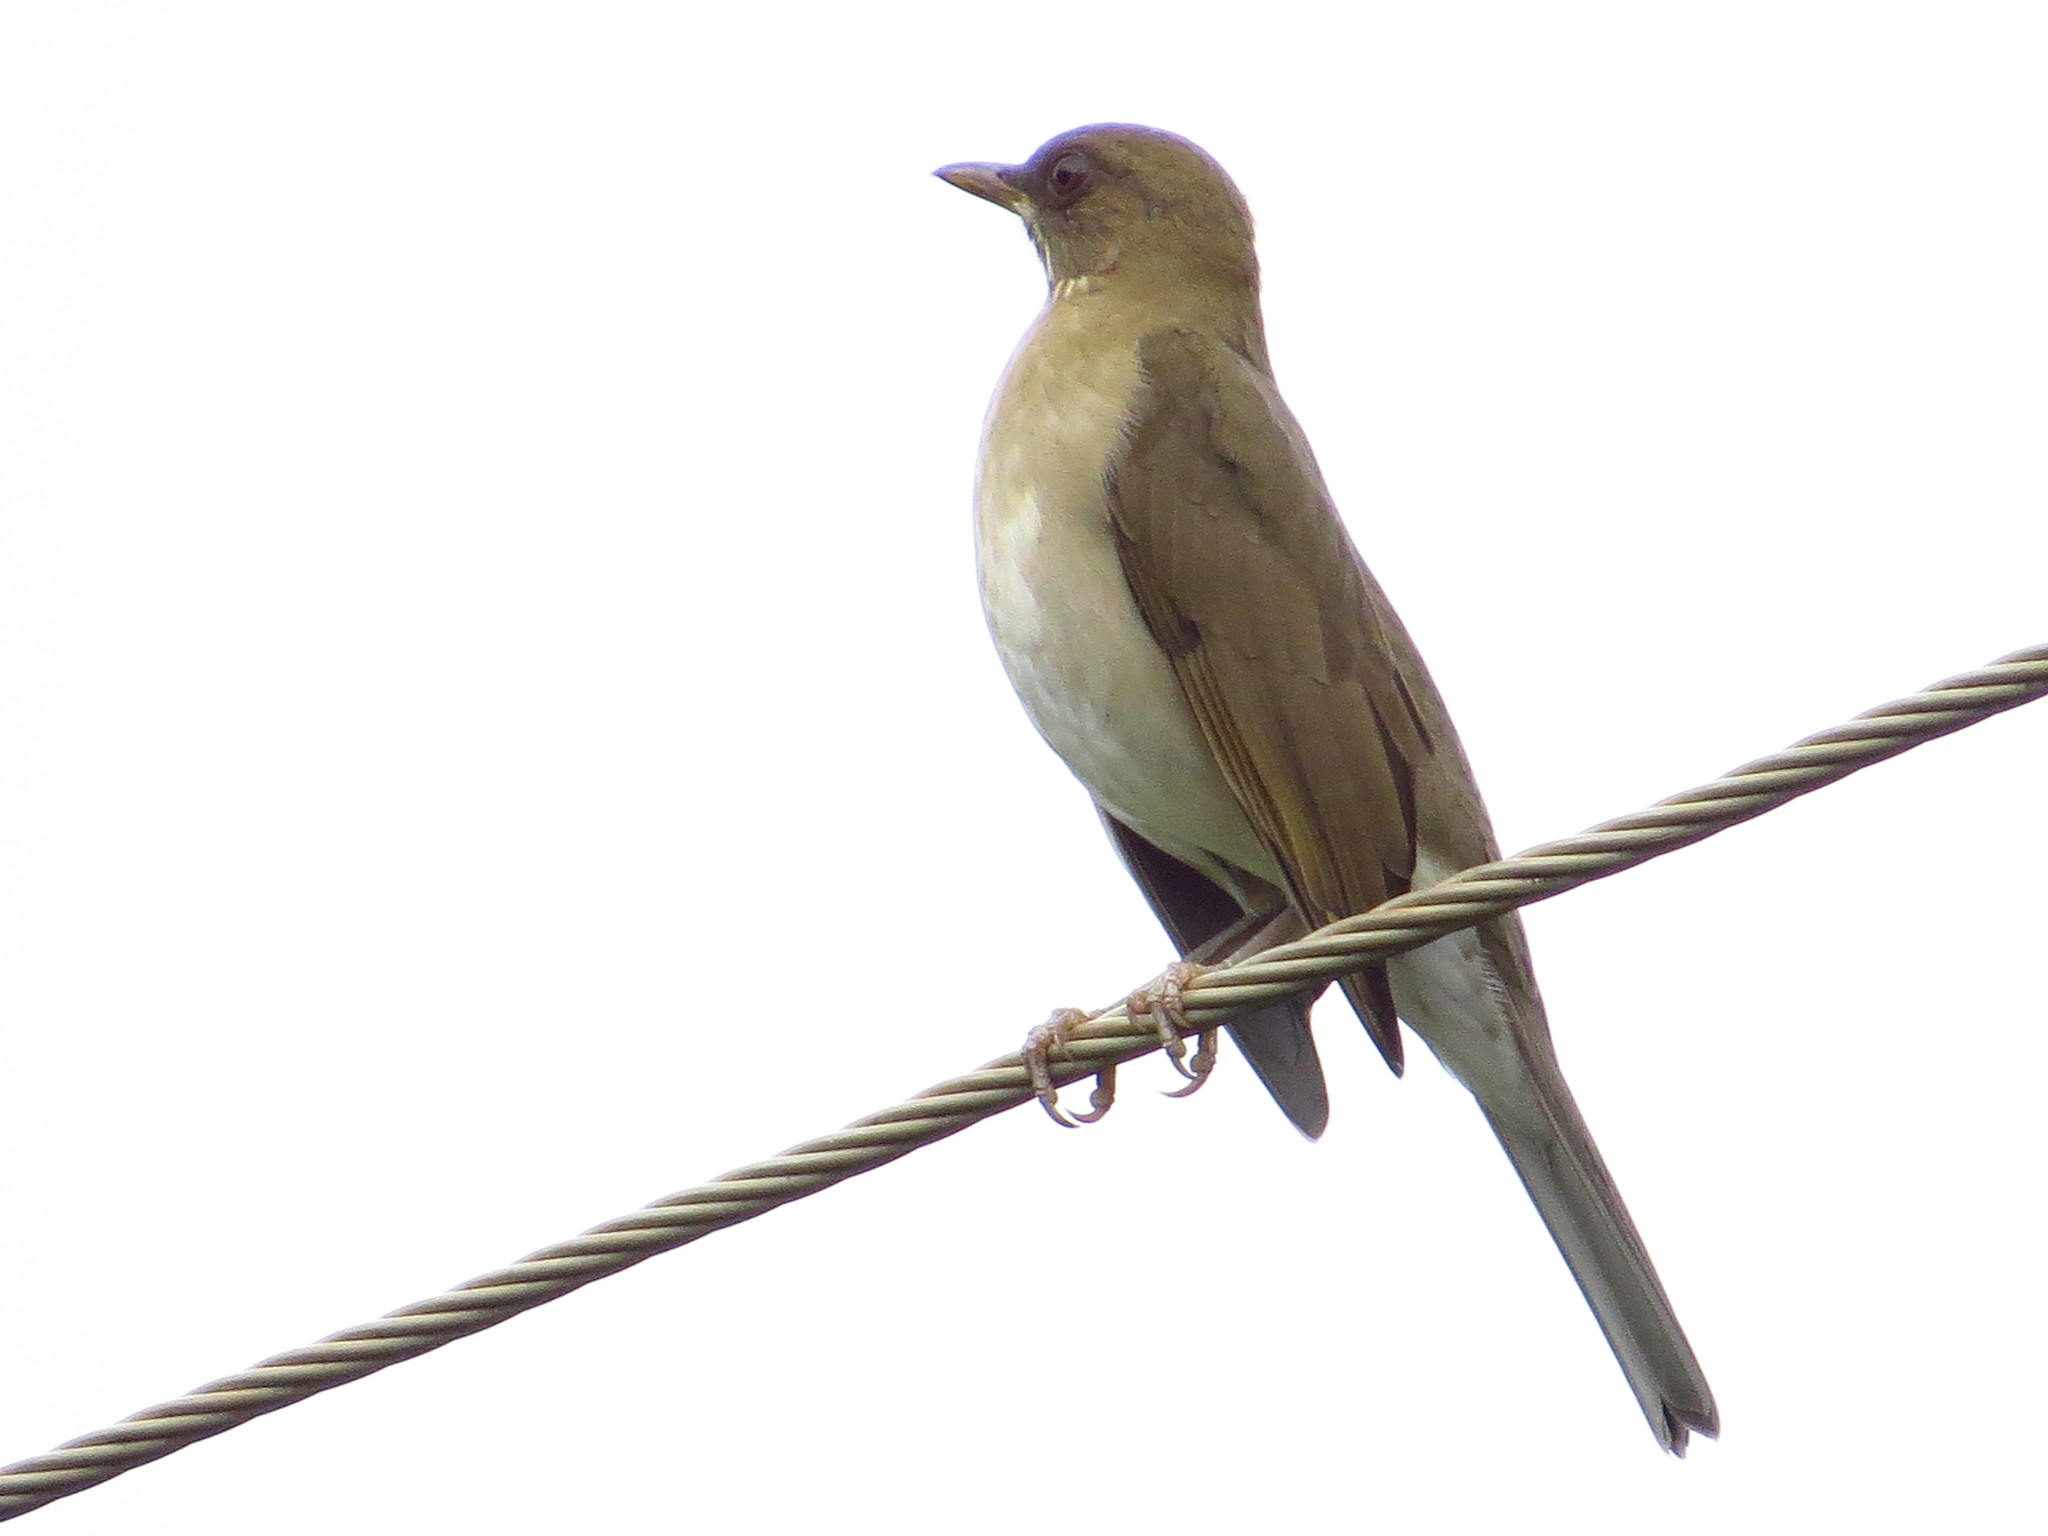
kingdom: Animalia
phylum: Chordata
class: Aves
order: Passeriformes
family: Turdidae
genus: Turdus
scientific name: Turdus amaurochalinus
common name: Creamy-bellied thrush
